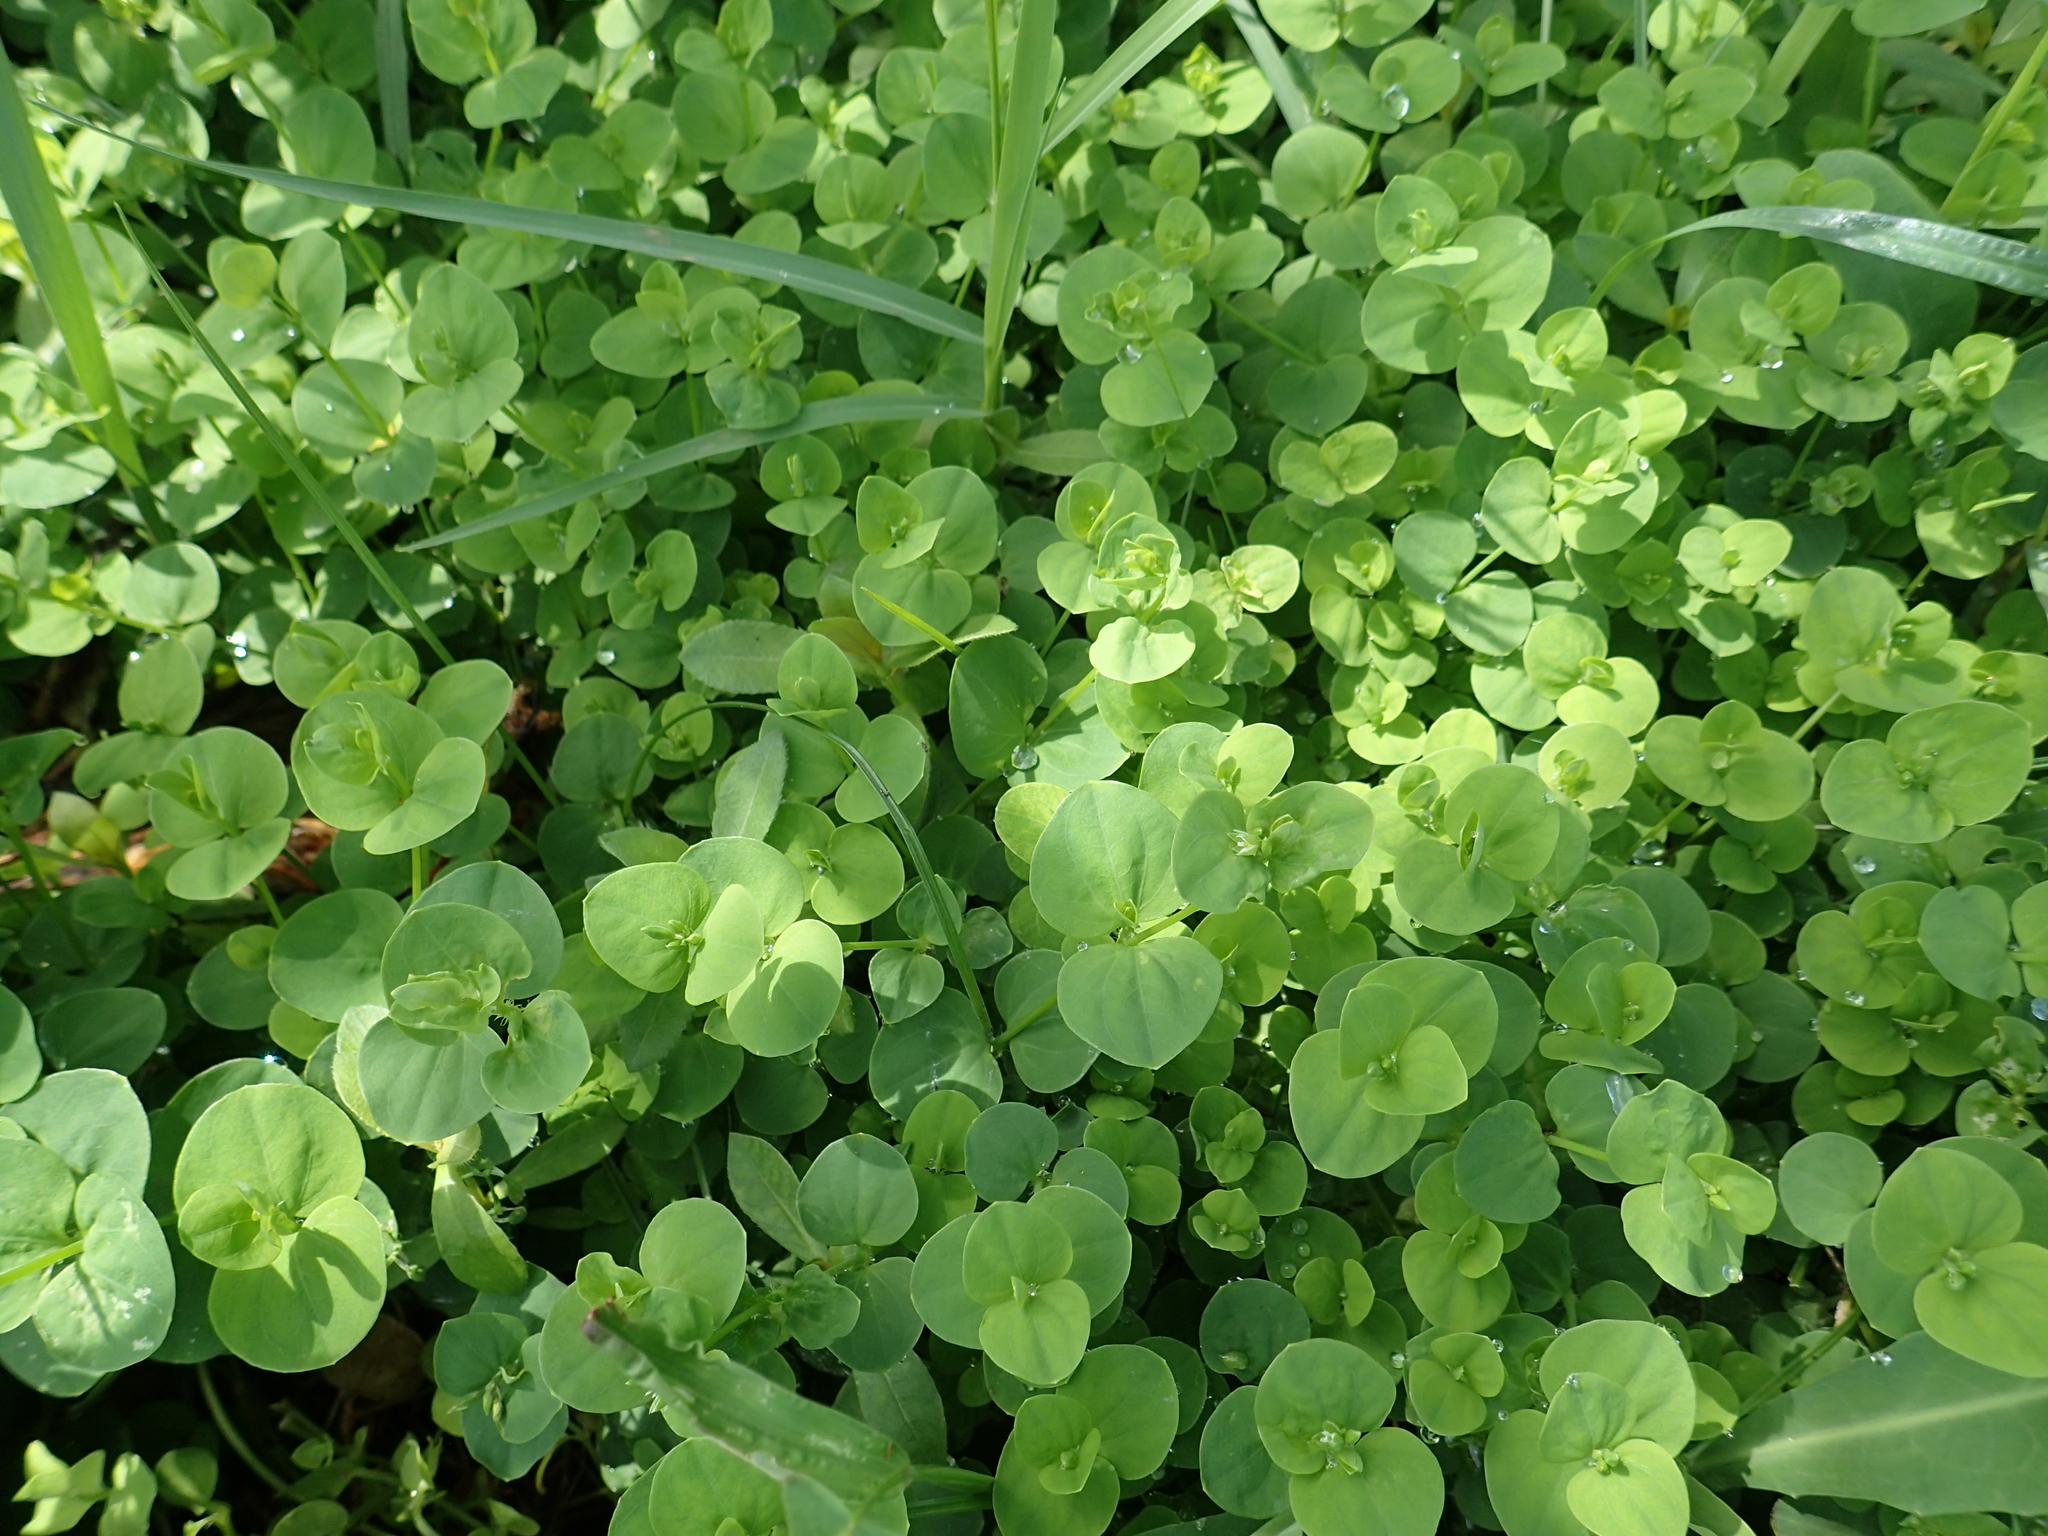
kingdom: Plantae
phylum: Tracheophyta
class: Magnoliopsida
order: Caryophyllales
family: Caryophyllaceae
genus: Drymaria
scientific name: Drymaria cordata
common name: Whitesnow
